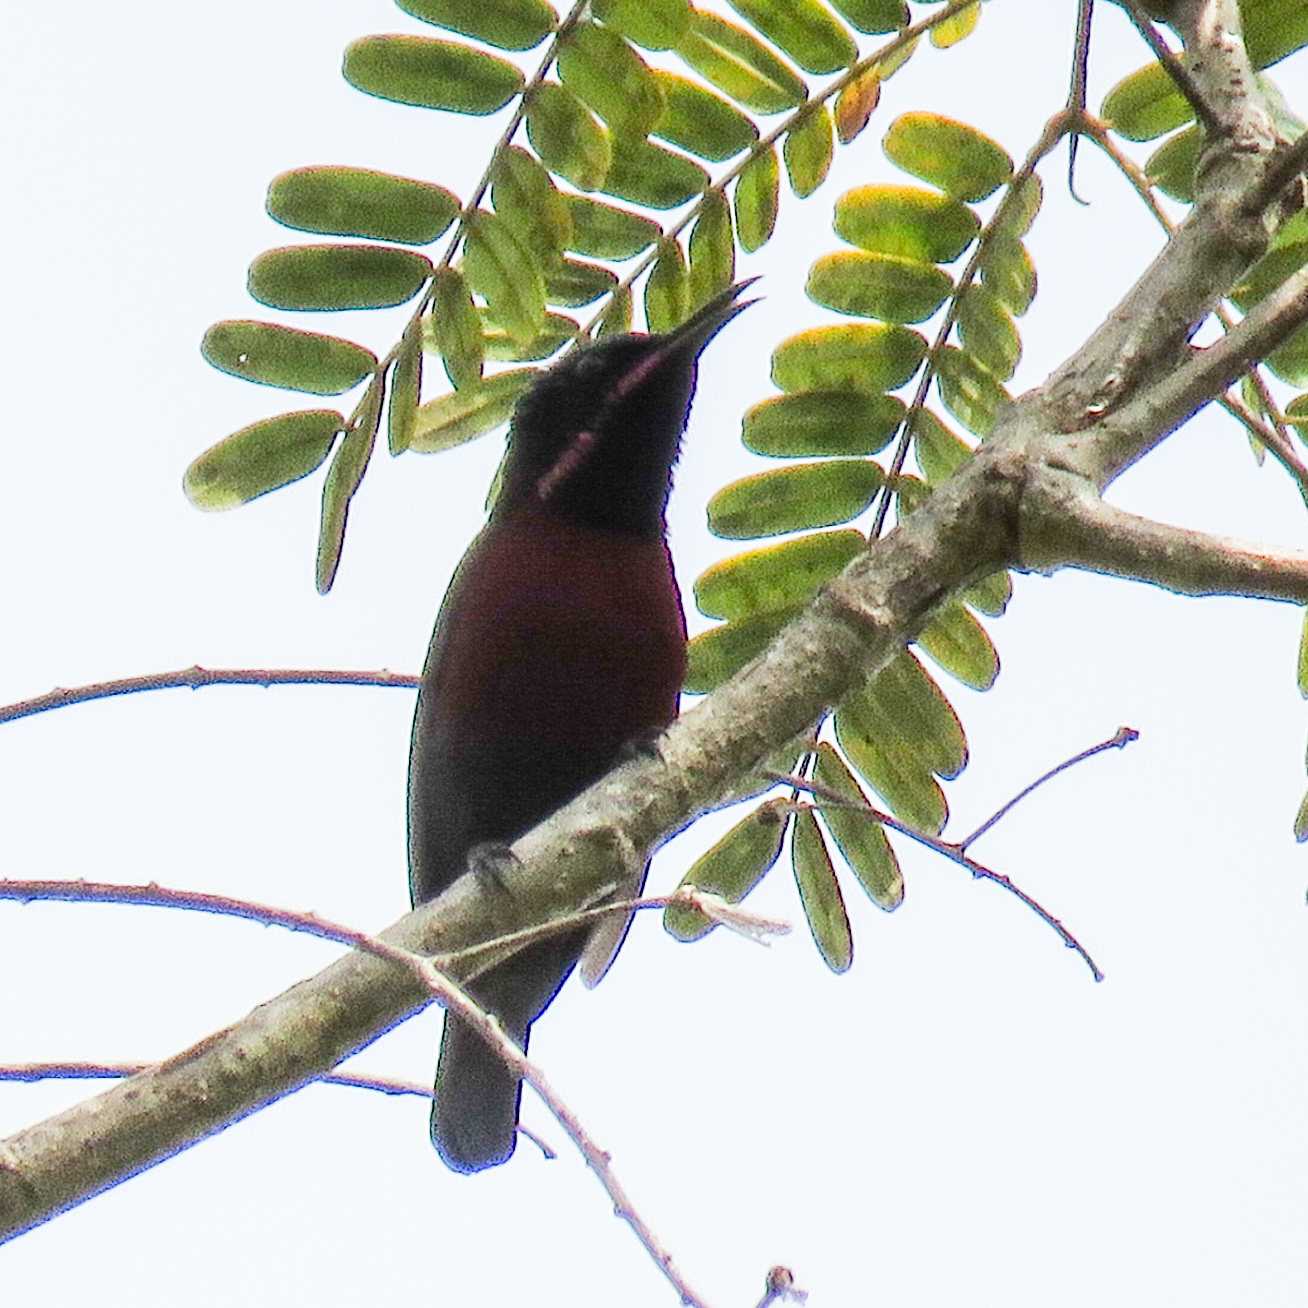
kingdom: Animalia
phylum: Chordata
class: Aves
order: Passeriformes
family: Nectariniidae
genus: Leptocoma
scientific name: Leptocoma brasiliana
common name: Van hasselt's sunbird
